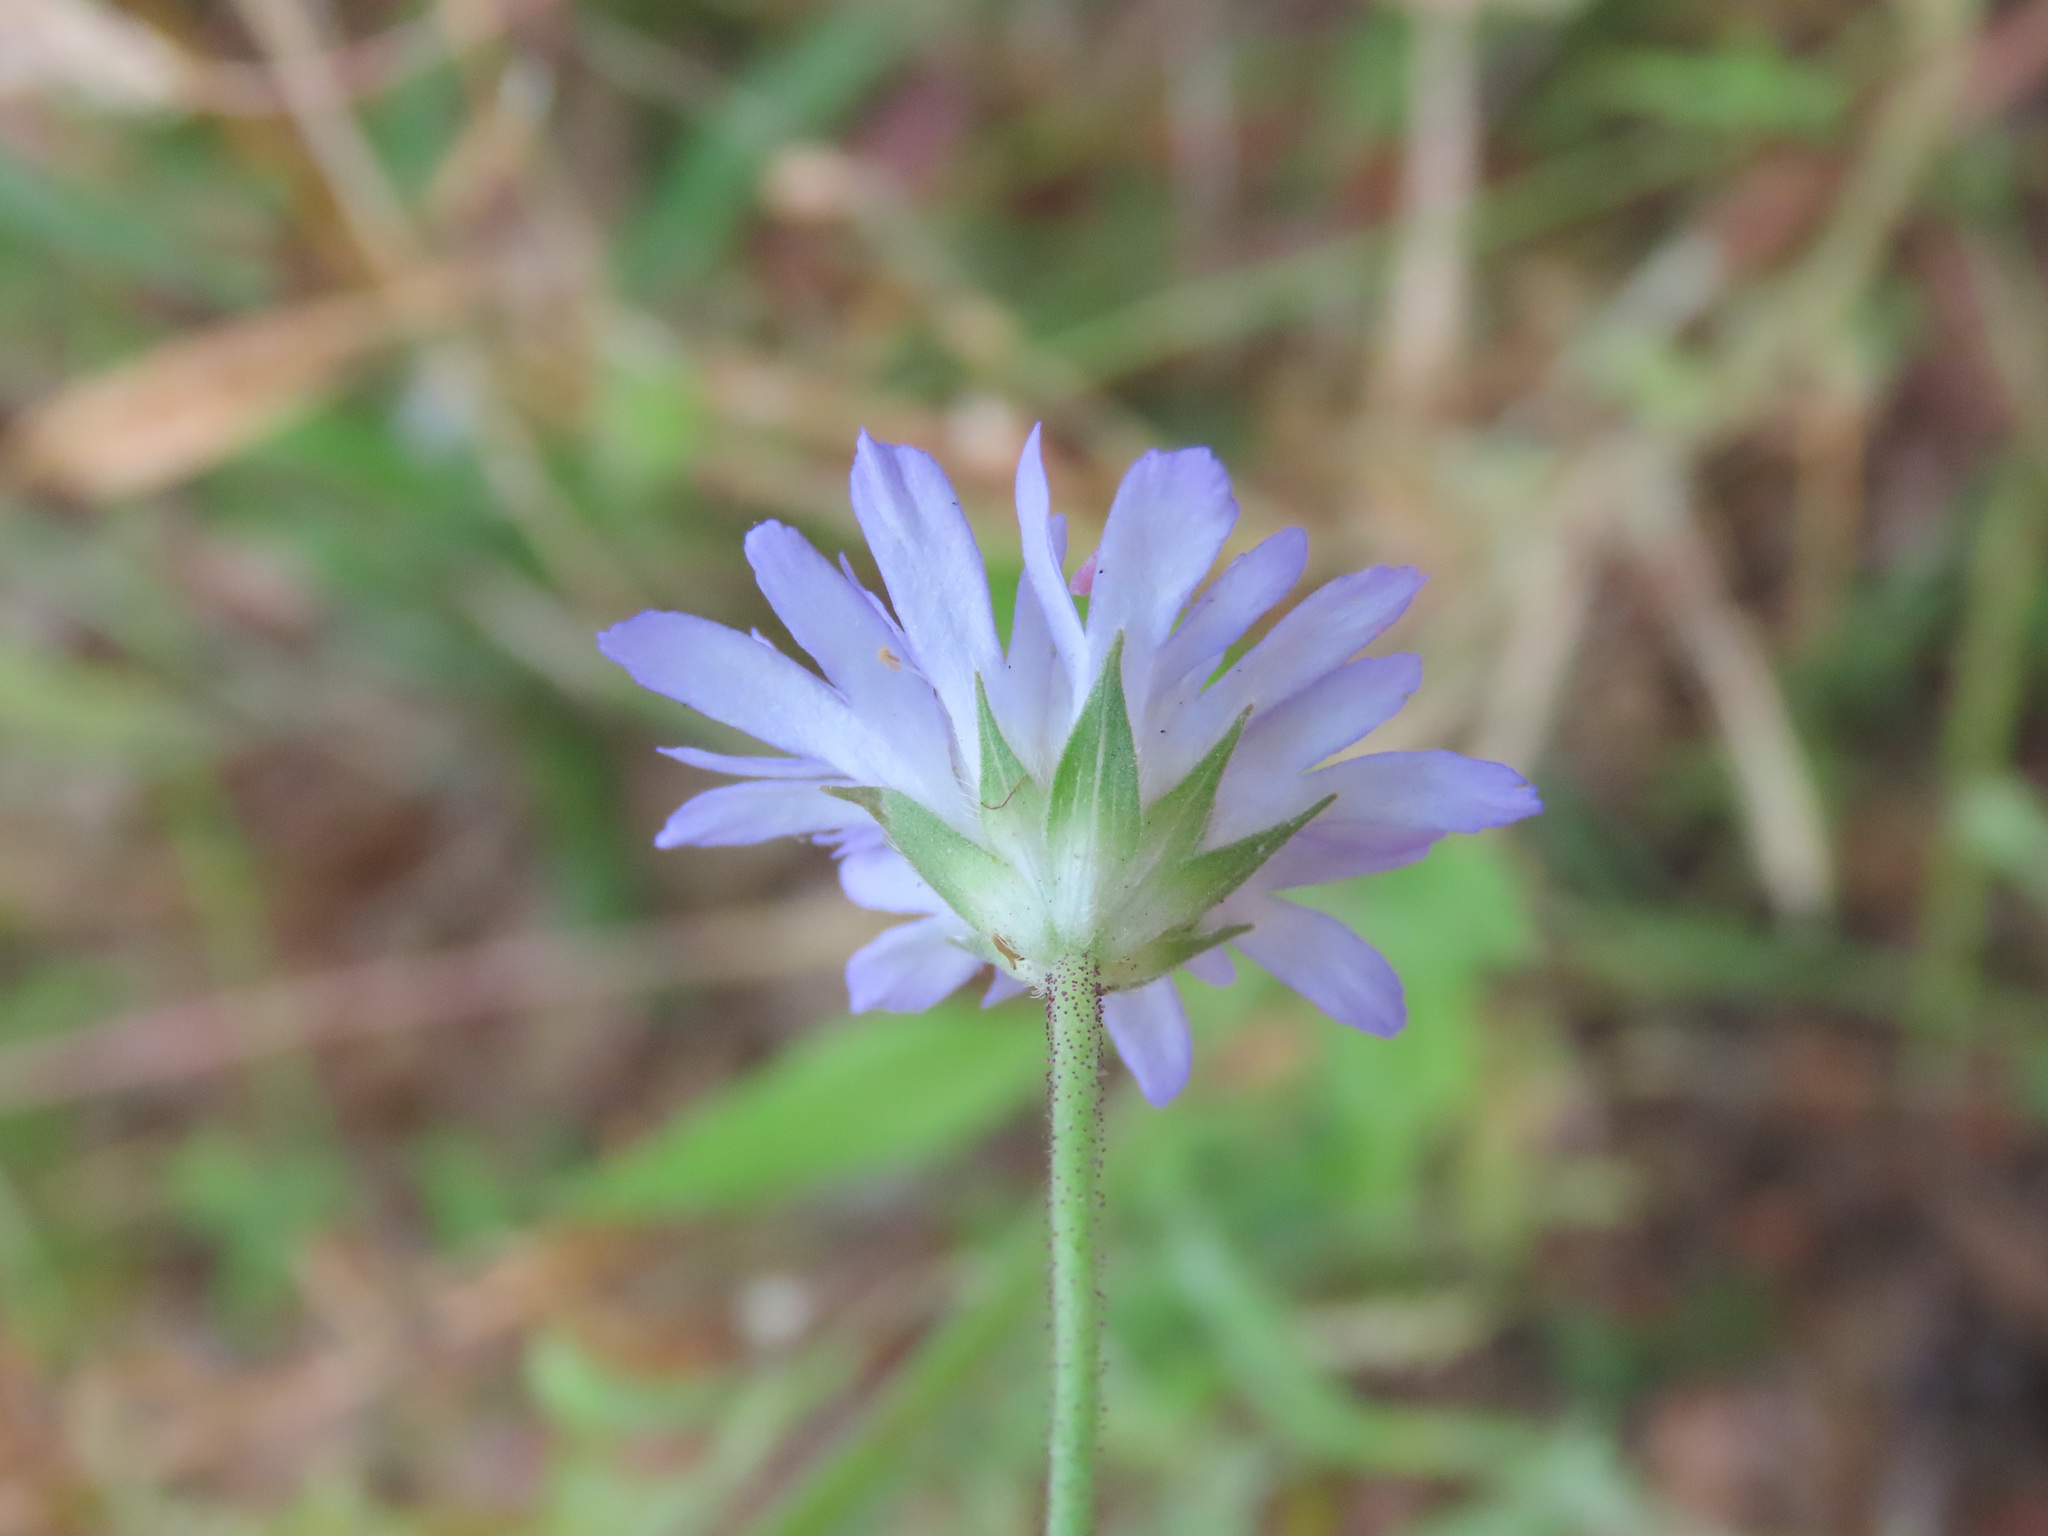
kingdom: Plantae
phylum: Tracheophyta
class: Magnoliopsida
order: Dipsacales
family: Caprifoliaceae
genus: Knautia
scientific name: Knautia integrifolia
